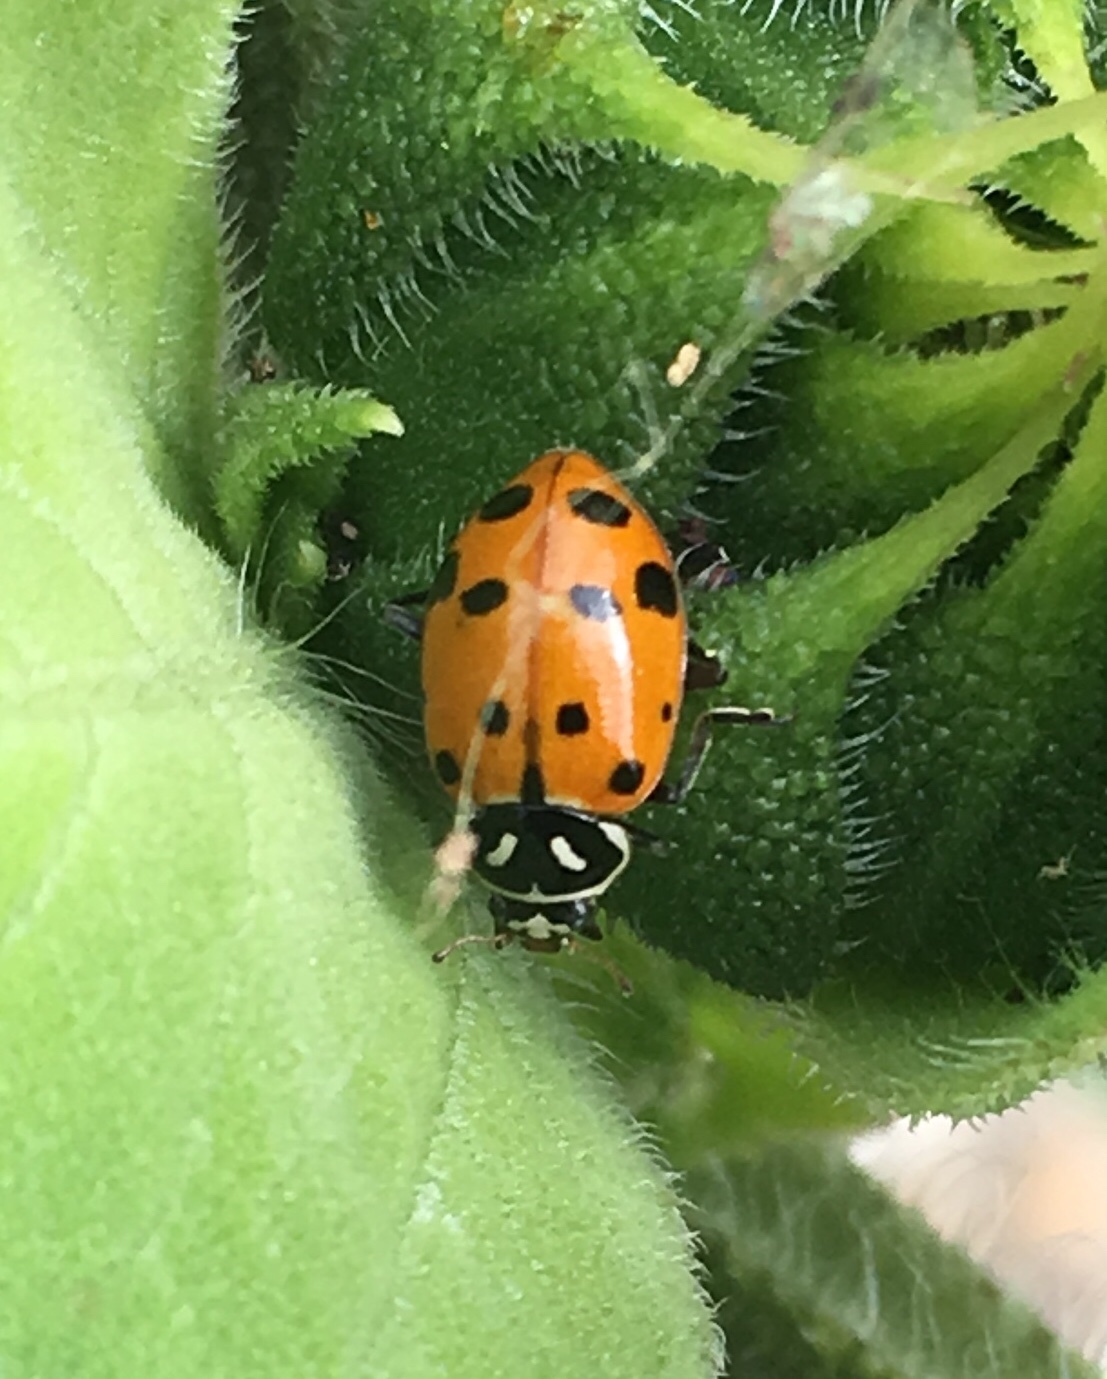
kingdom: Animalia
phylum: Arthropoda
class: Insecta
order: Coleoptera
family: Coccinellidae
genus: Hippodamia
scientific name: Hippodamia convergens
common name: Convergent lady beetle
